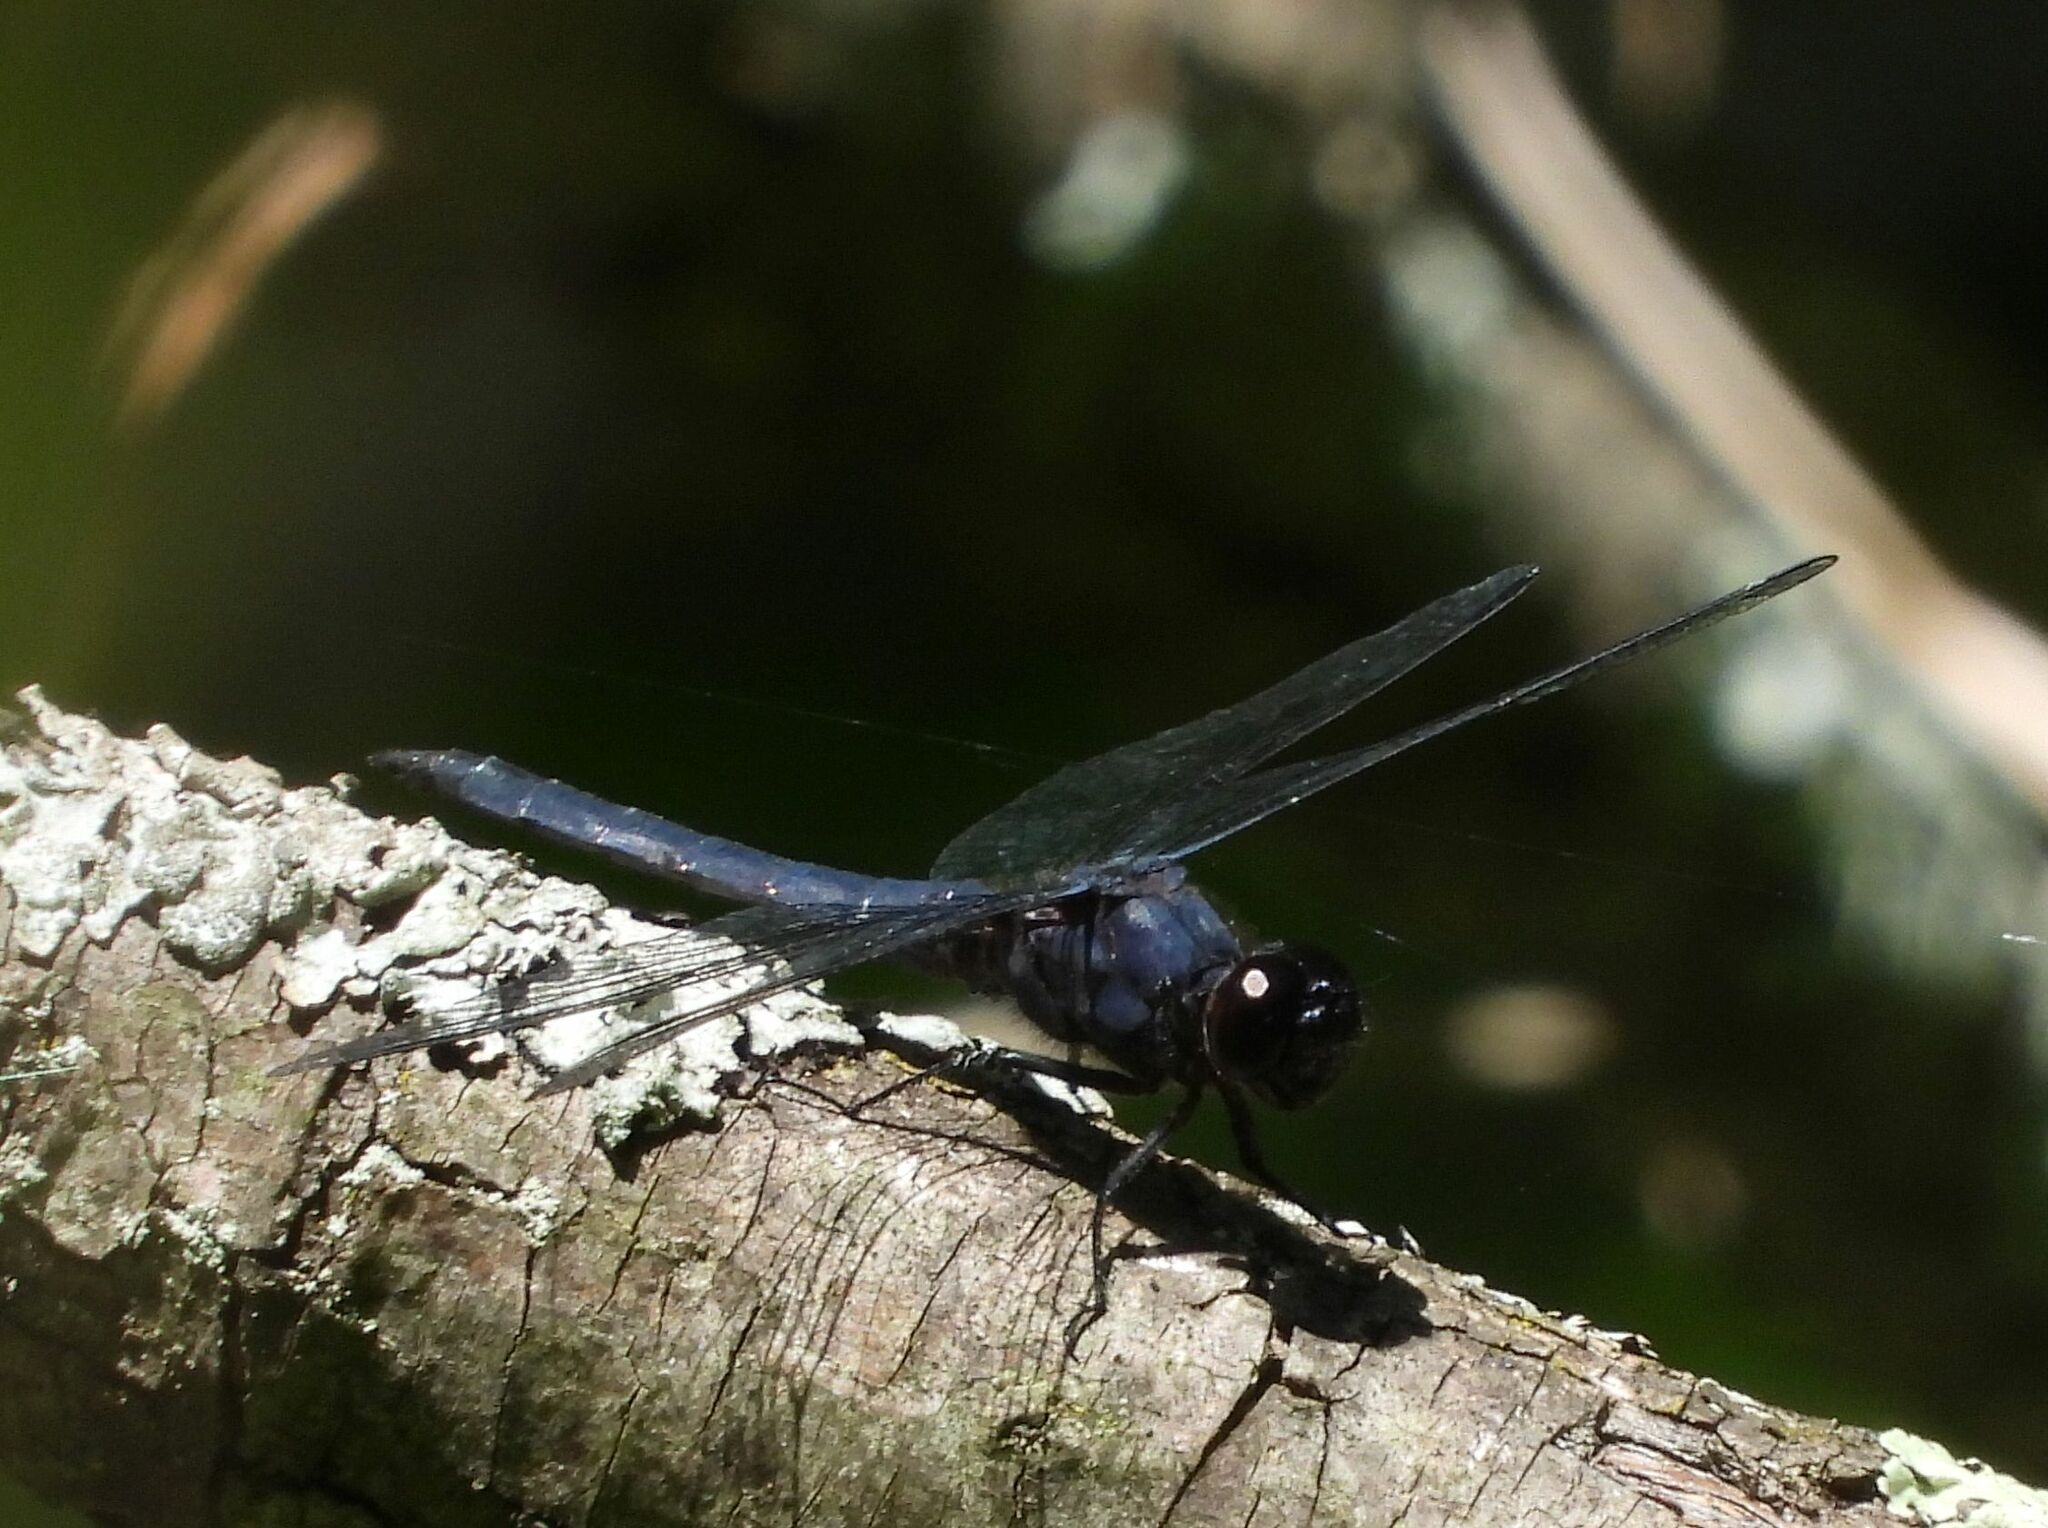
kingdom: Animalia
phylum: Arthropoda
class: Insecta
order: Odonata
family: Libellulidae
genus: Libellula
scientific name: Libellula incesta
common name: Slaty skimmer
